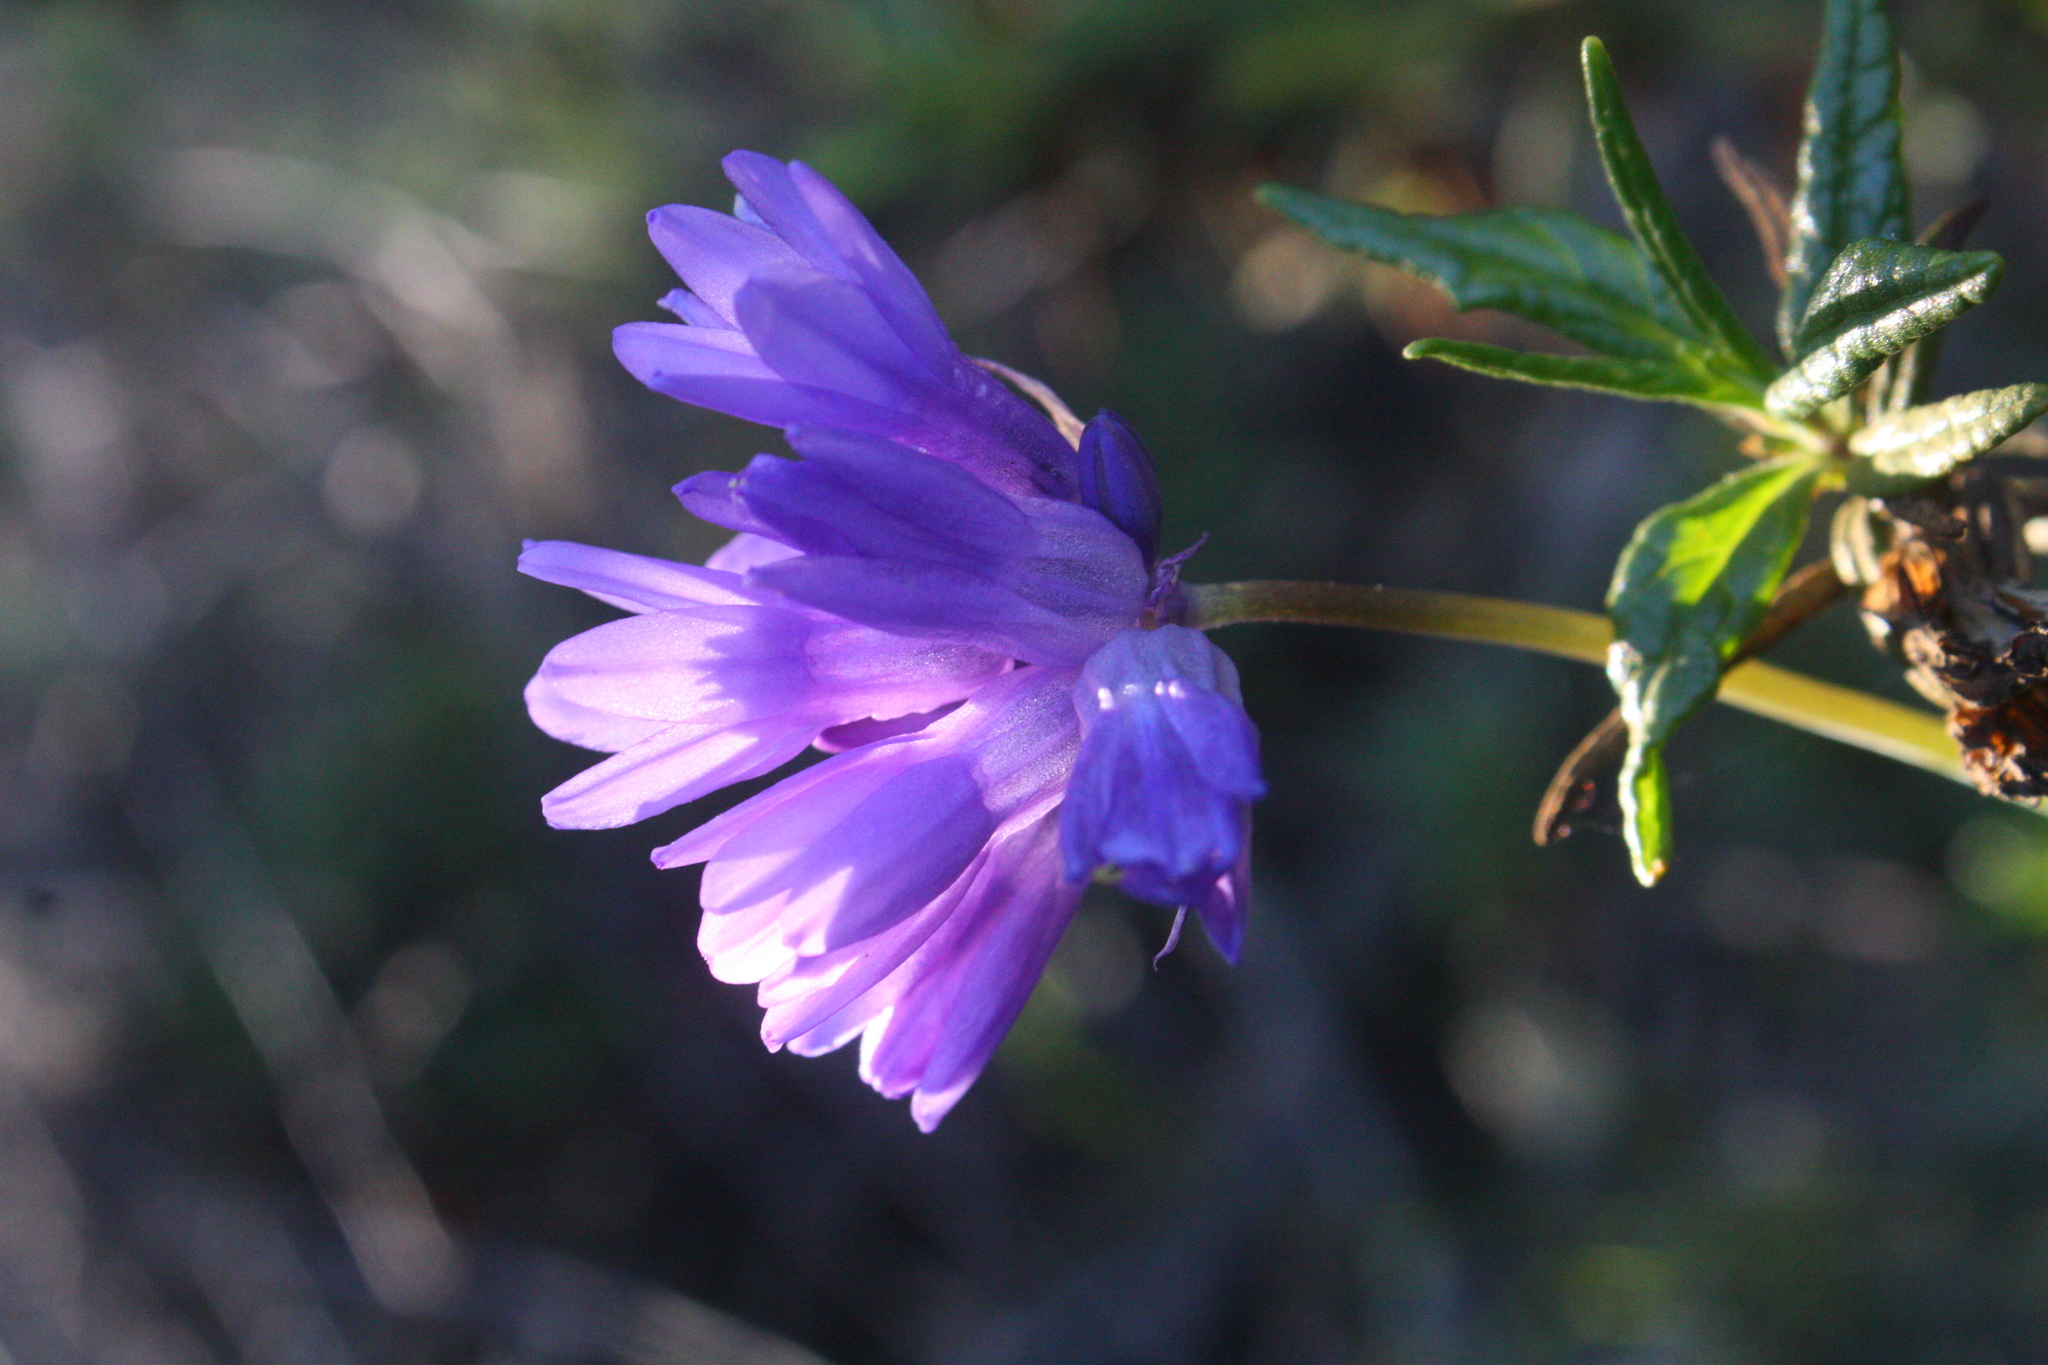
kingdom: Plantae
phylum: Tracheophyta
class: Liliopsida
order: Asparagales
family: Asparagaceae
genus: Dipterostemon
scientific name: Dipterostemon capitatus
